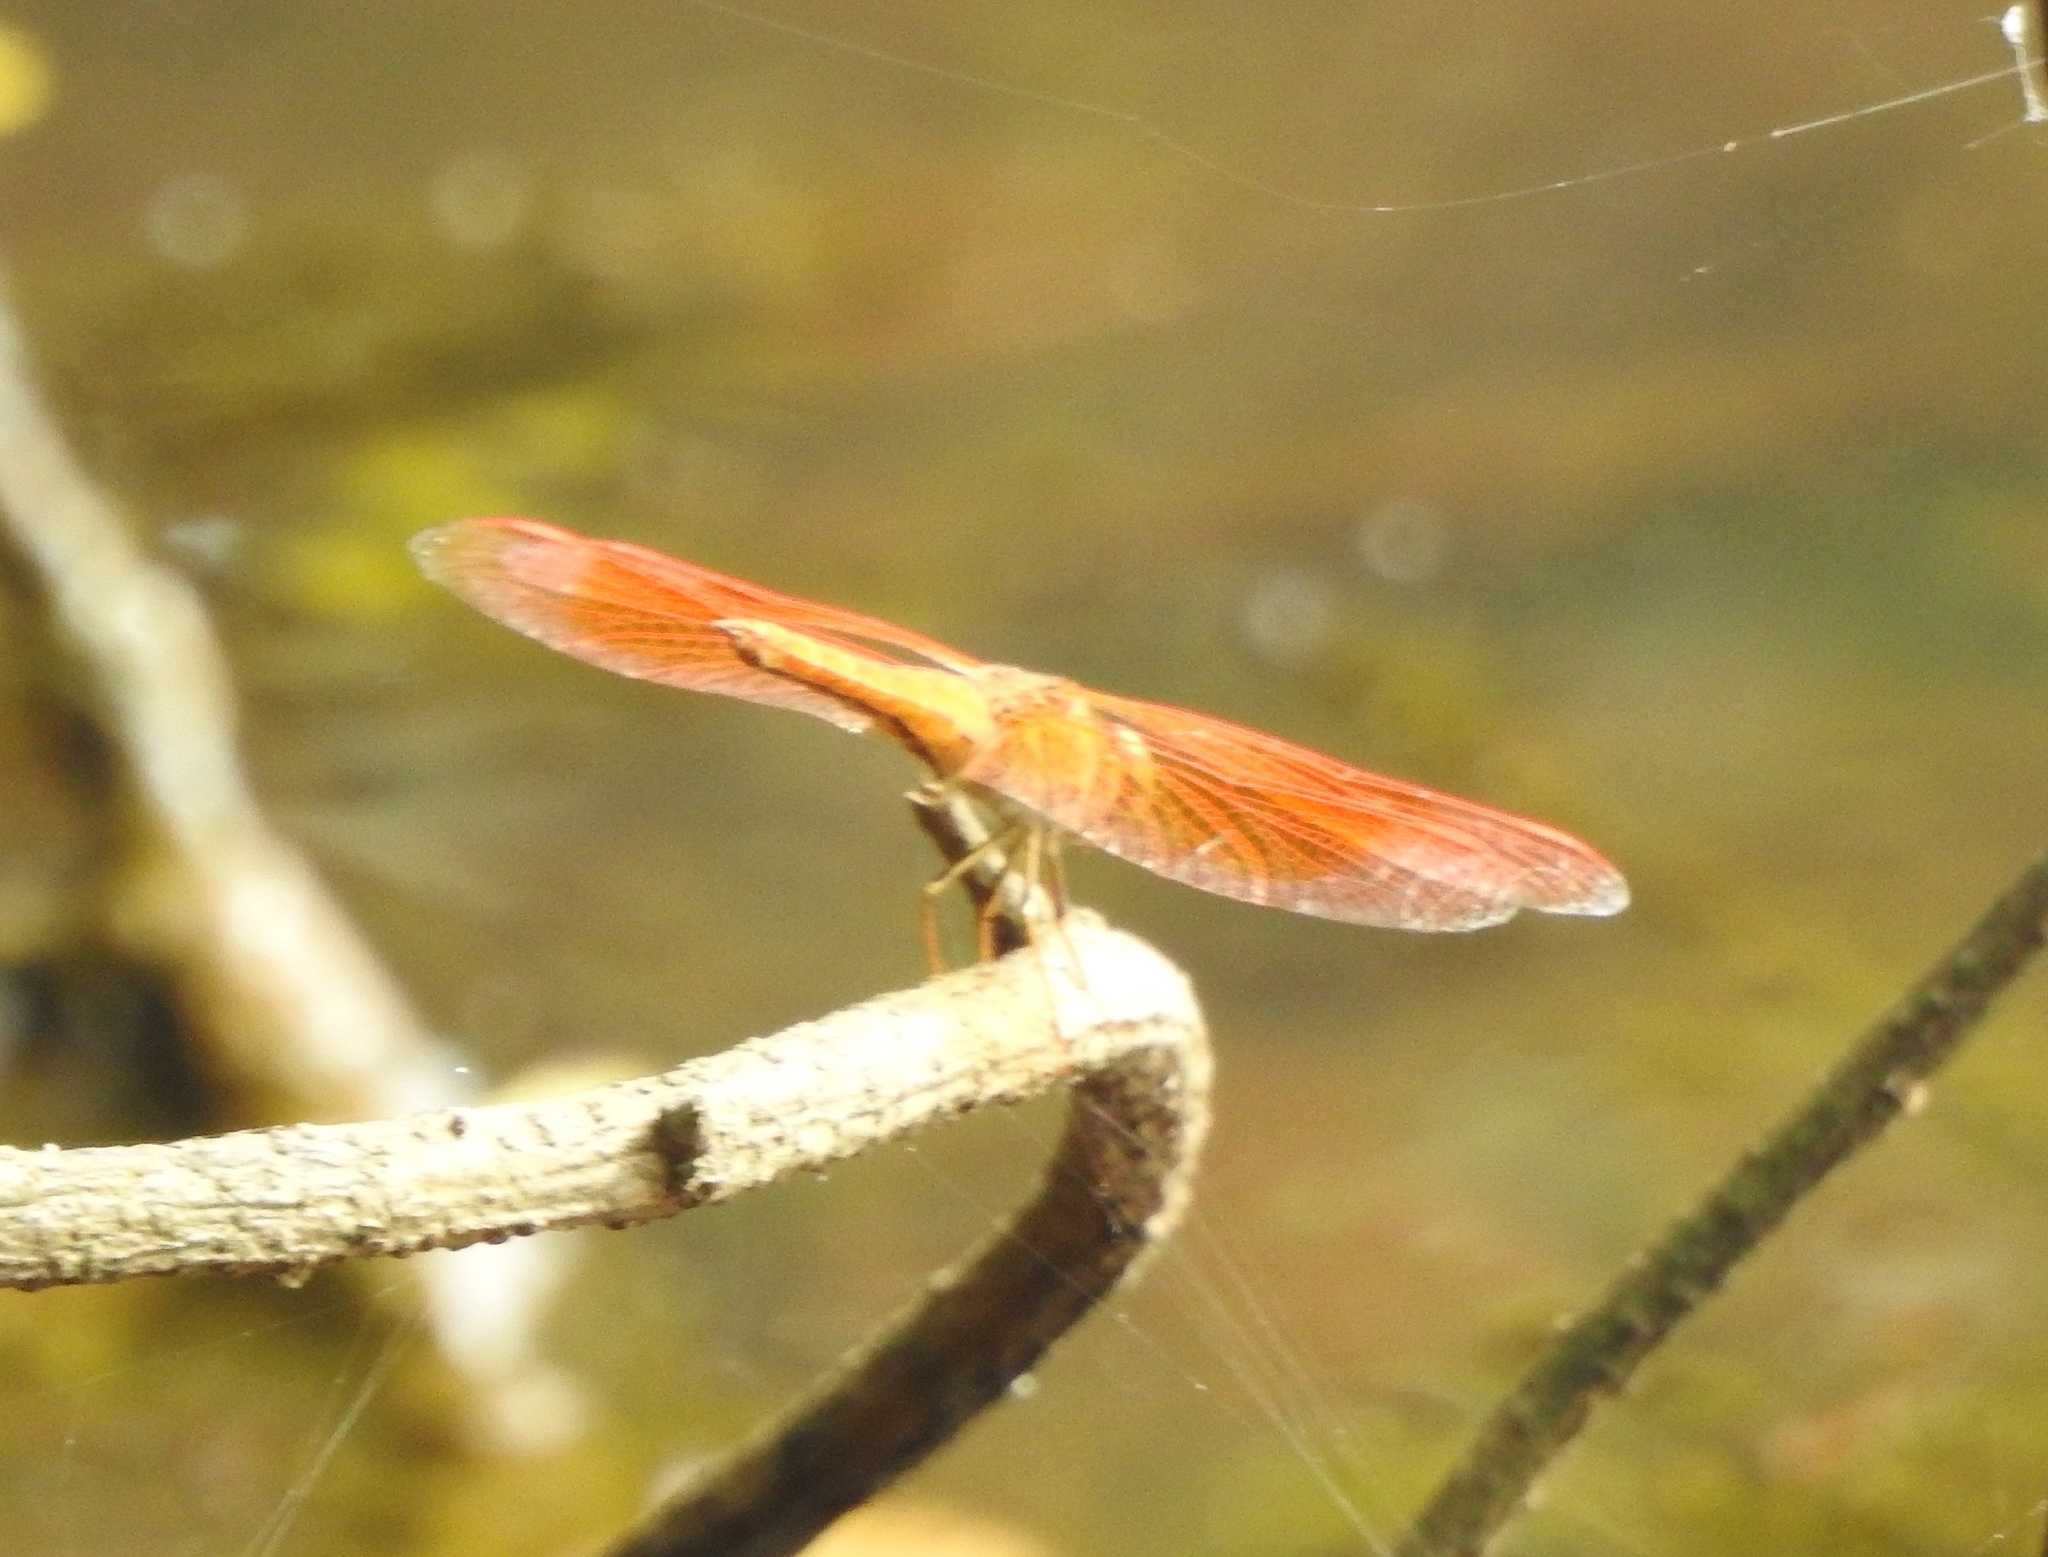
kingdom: Animalia
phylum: Arthropoda
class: Insecta
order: Odonata
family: Libellulidae
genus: Brachythemis
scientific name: Brachythemis contaminata
